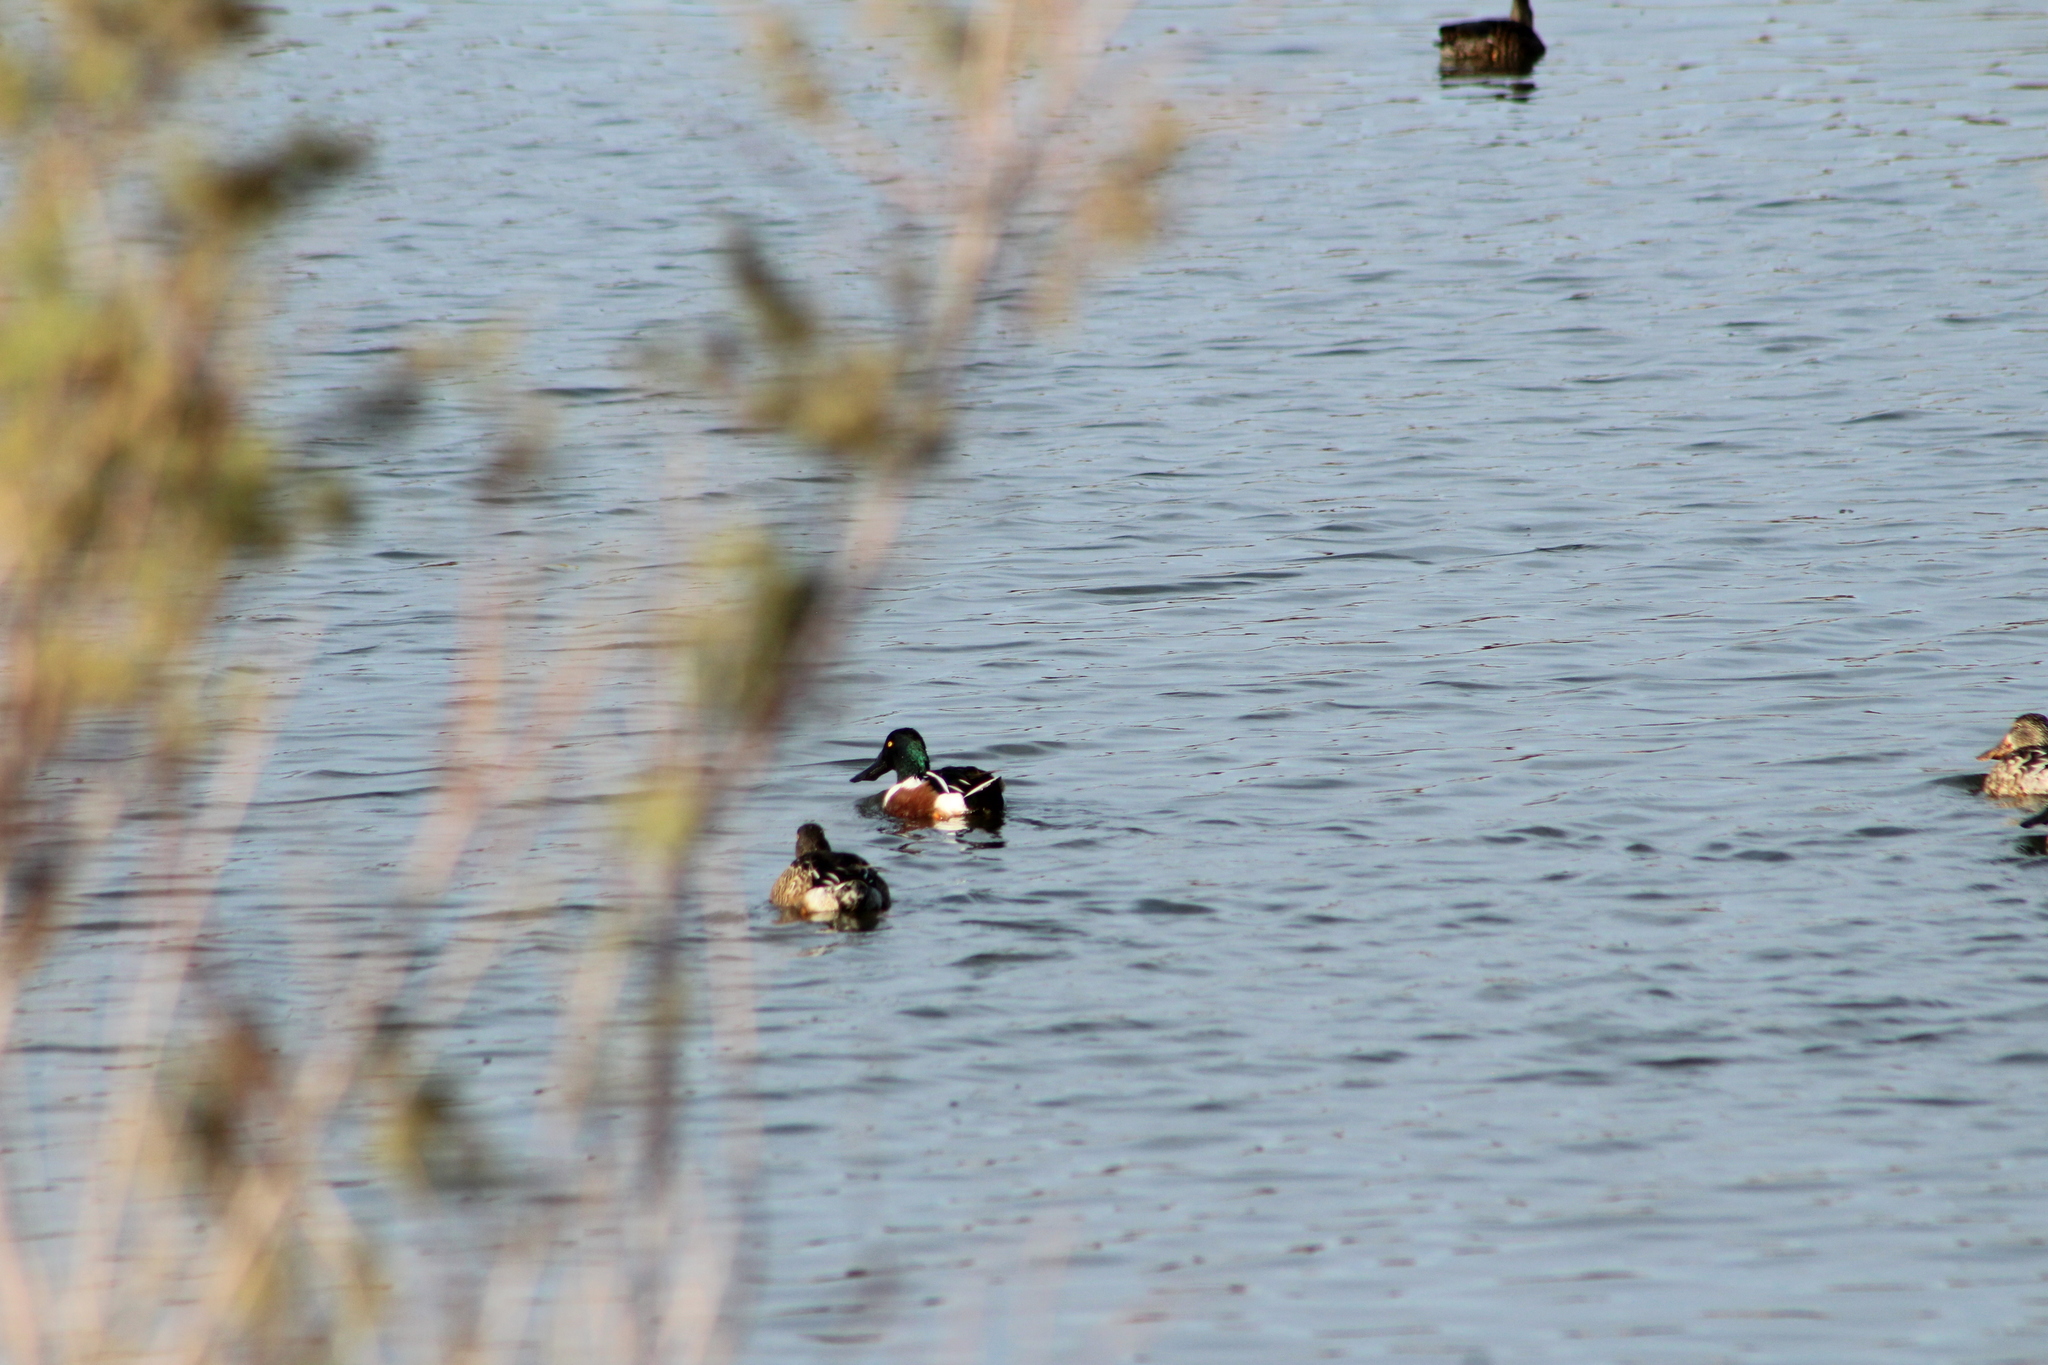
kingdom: Animalia
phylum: Chordata
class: Aves
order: Anseriformes
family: Anatidae
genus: Spatula
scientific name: Spatula clypeata
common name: Northern shoveler
